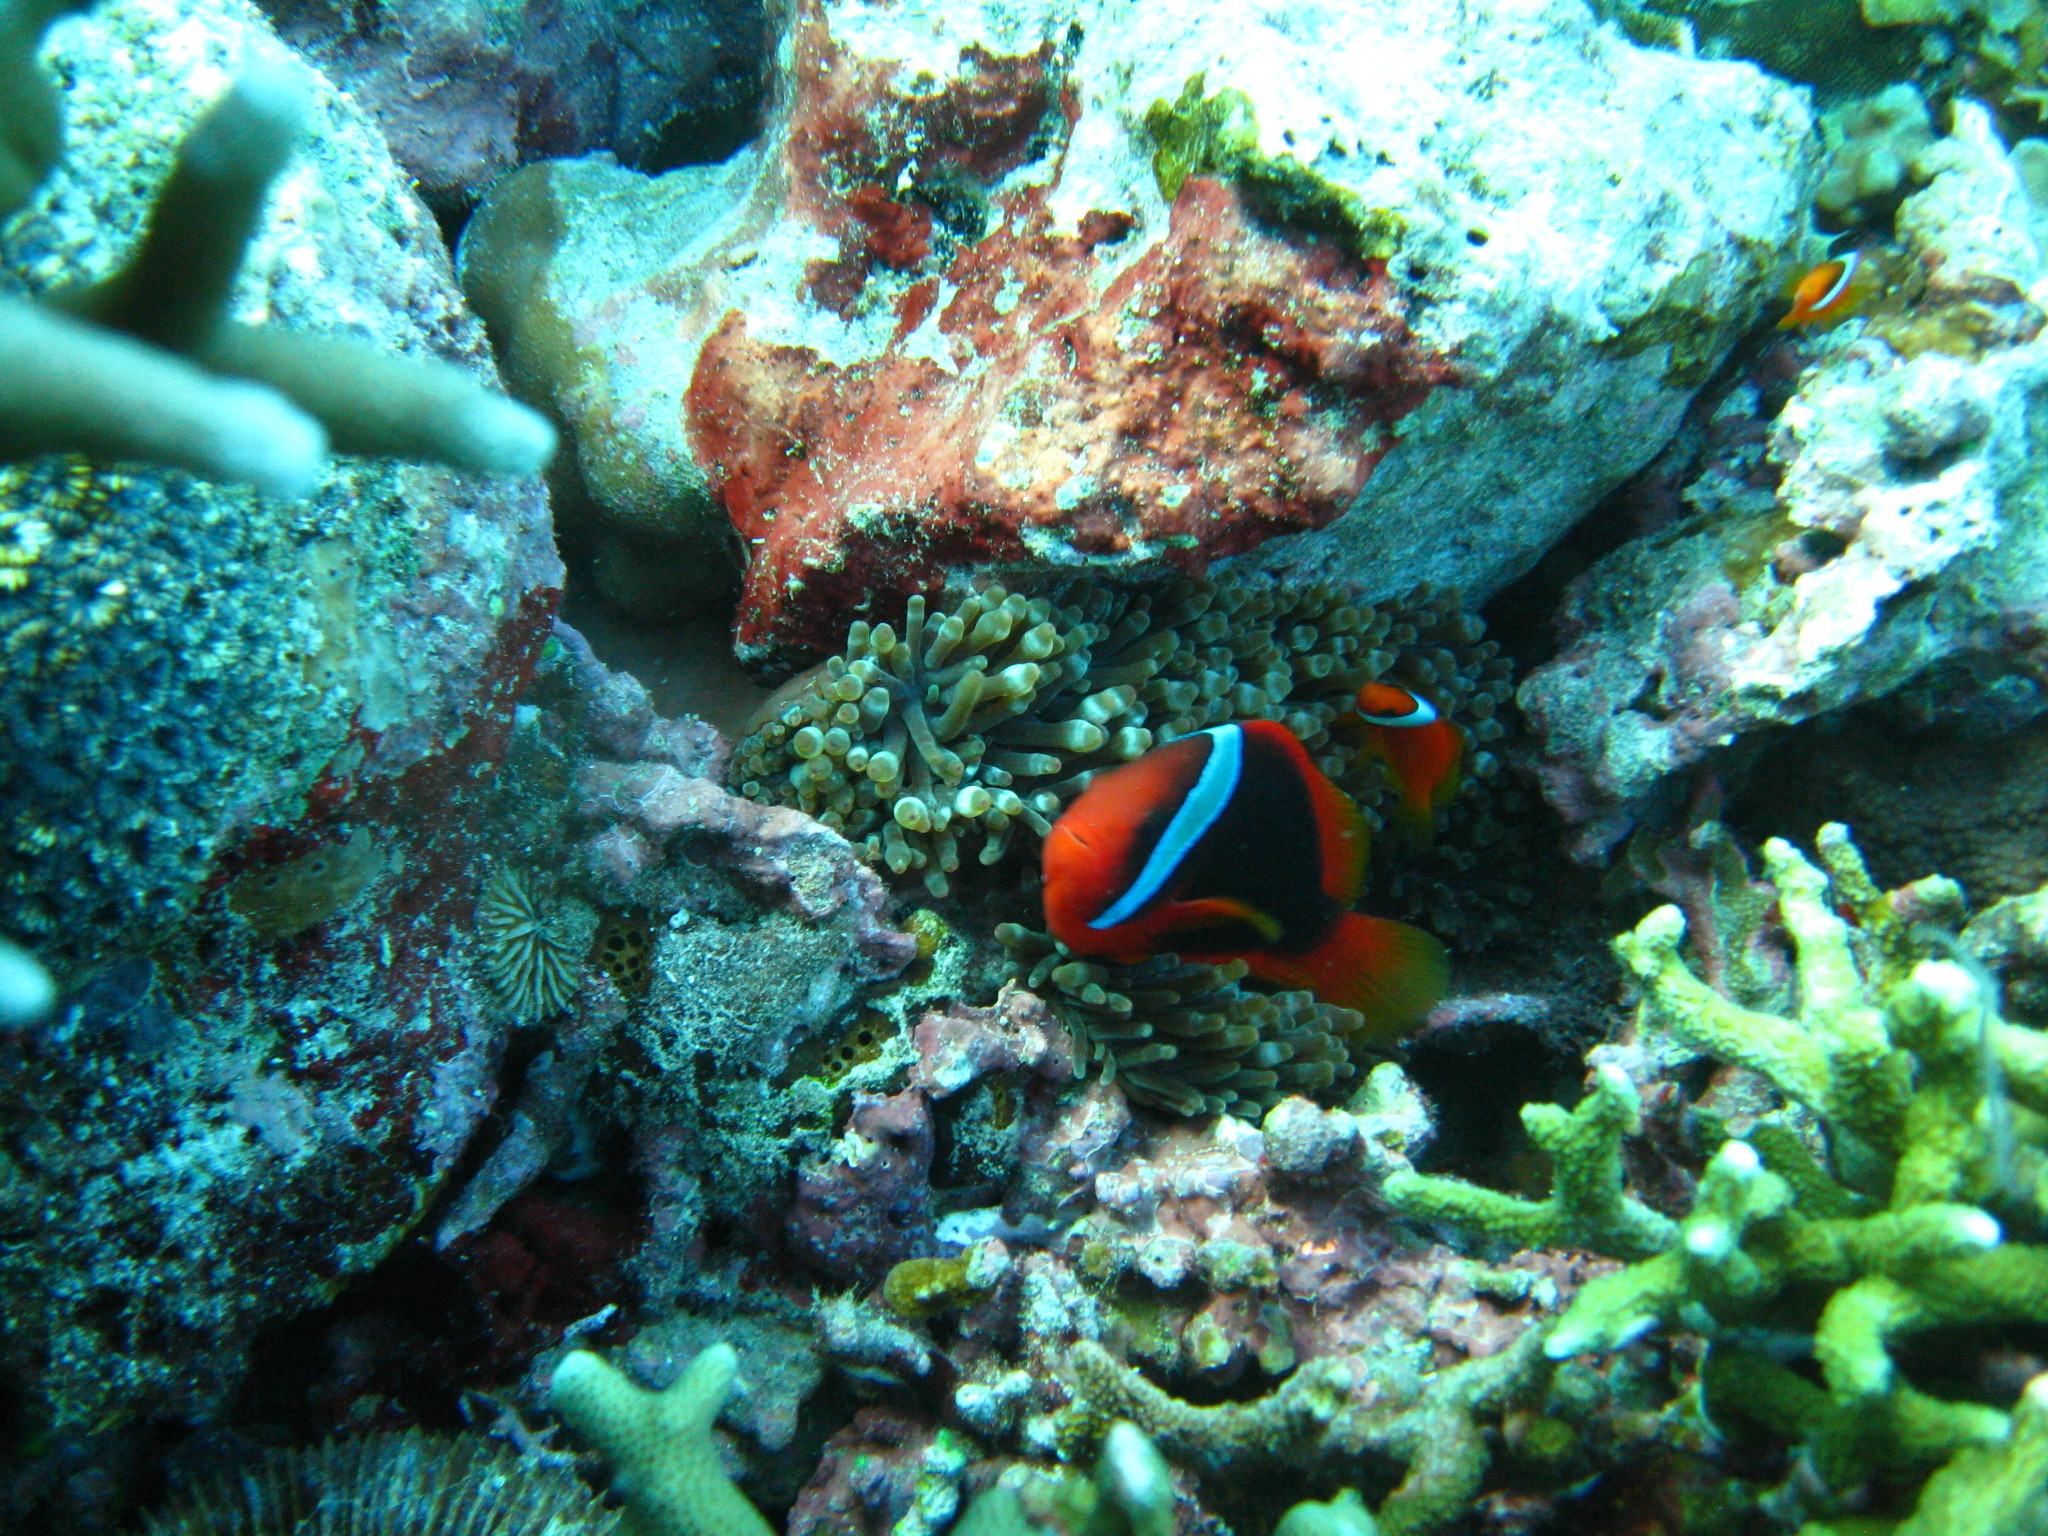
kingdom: Animalia
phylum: Chordata
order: Perciformes
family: Pomacentridae
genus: Amphiprion
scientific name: Amphiprion frenatus
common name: Tomato anemonefish
